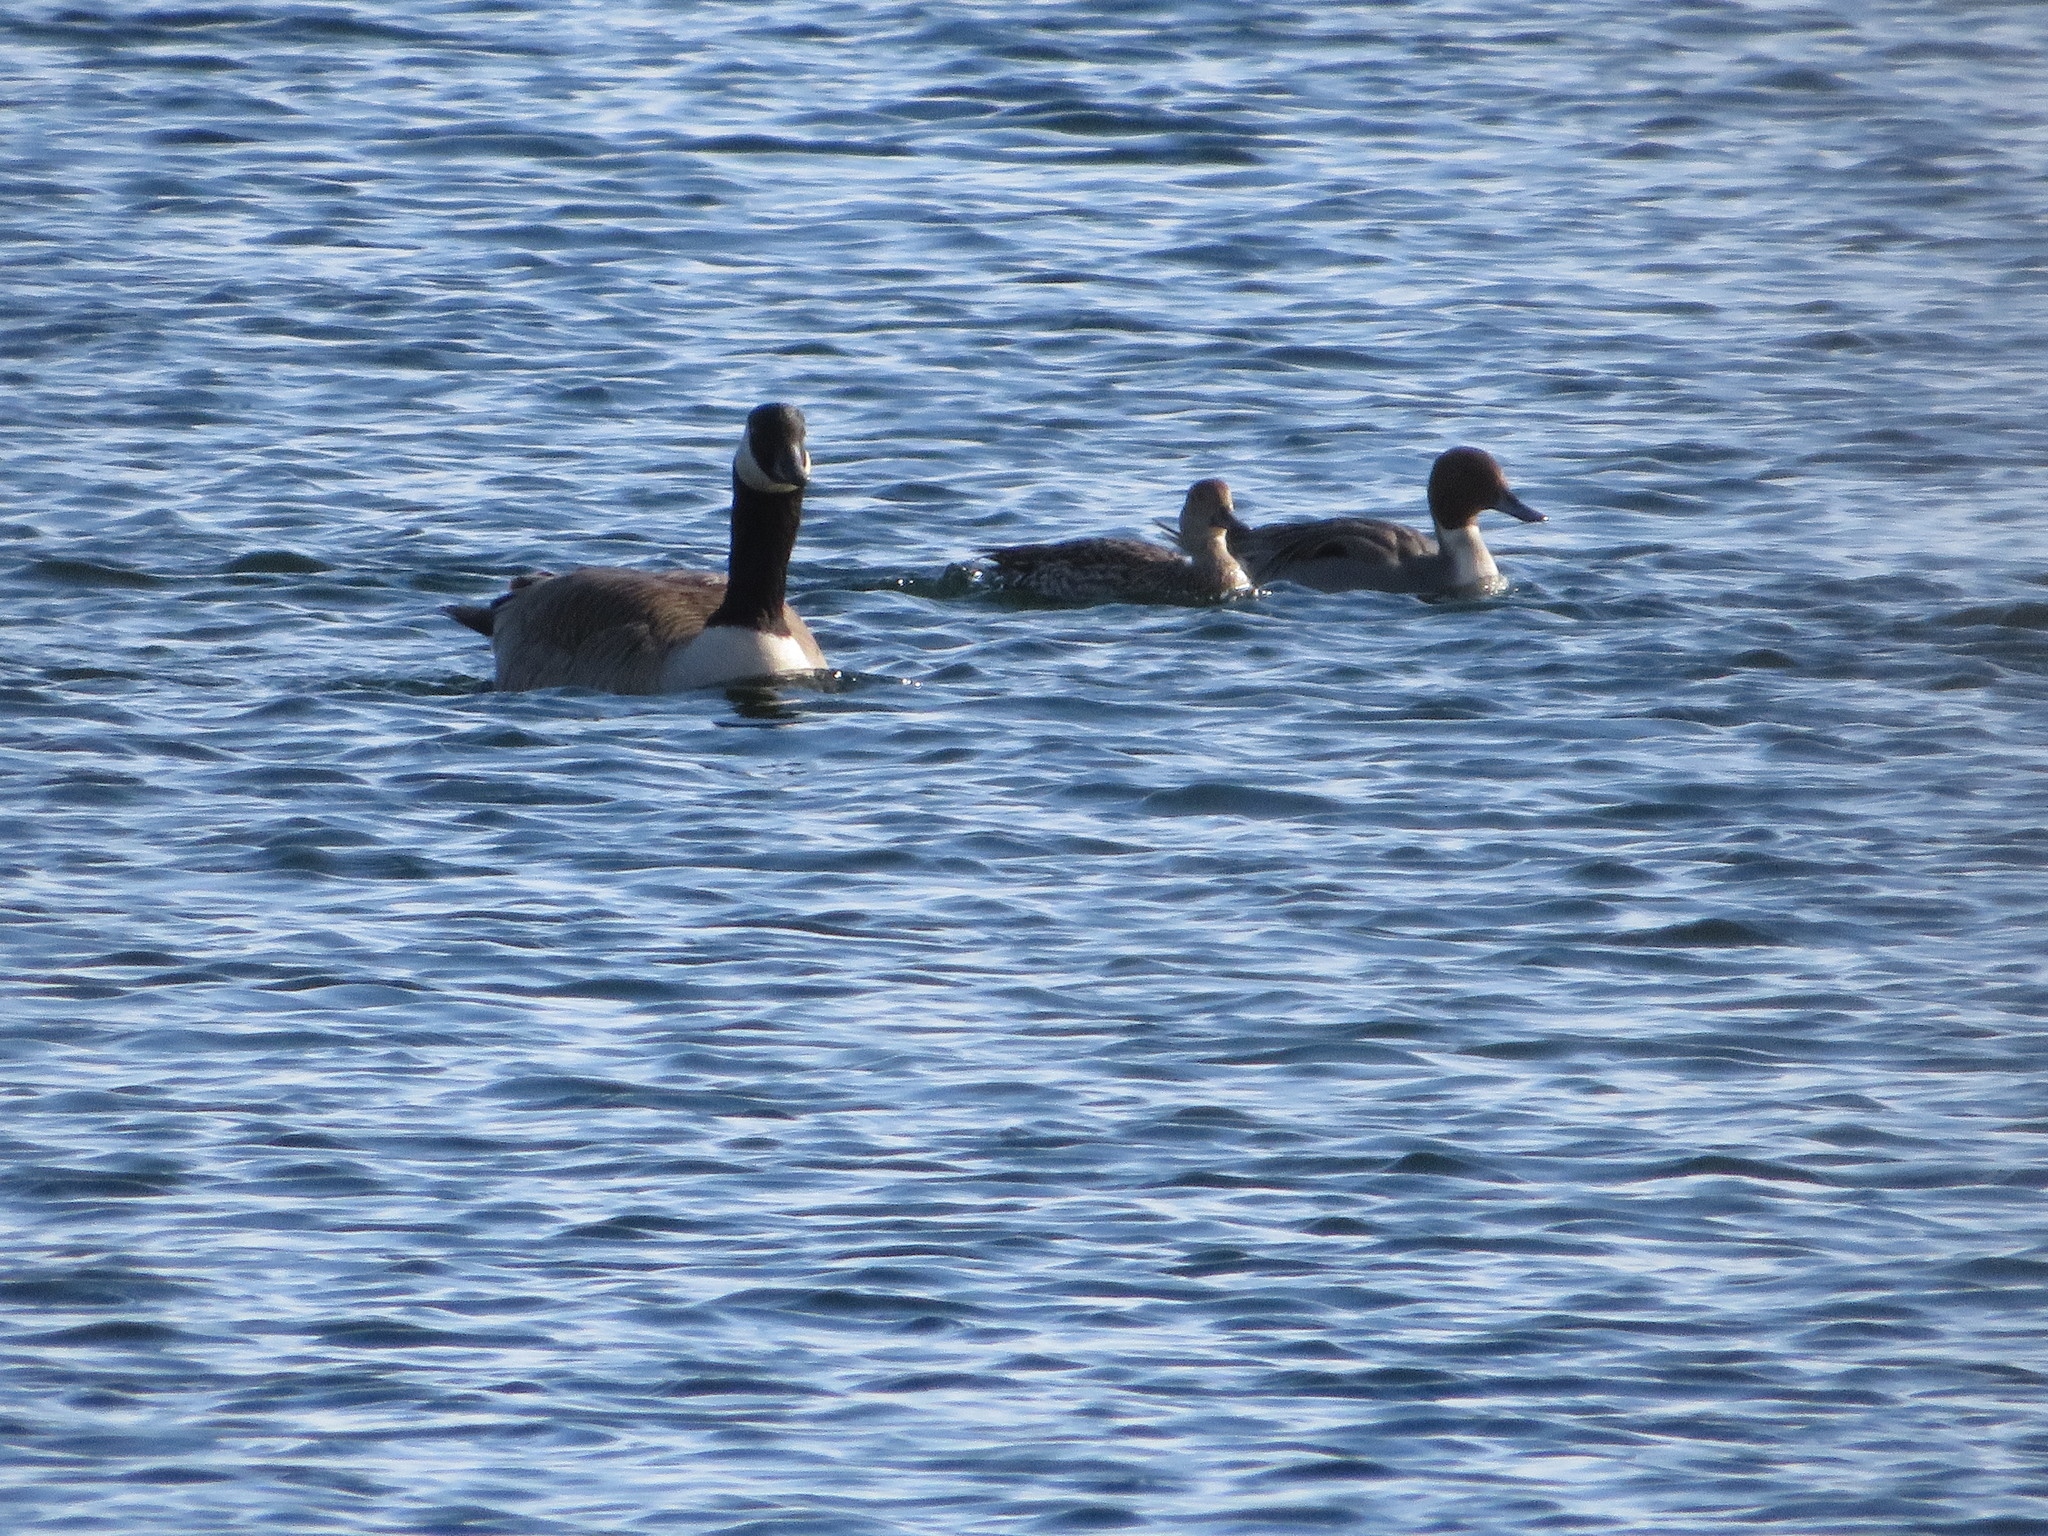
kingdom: Animalia
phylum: Chordata
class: Aves
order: Anseriformes
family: Anatidae
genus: Anas
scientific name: Anas acuta
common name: Northern pintail
